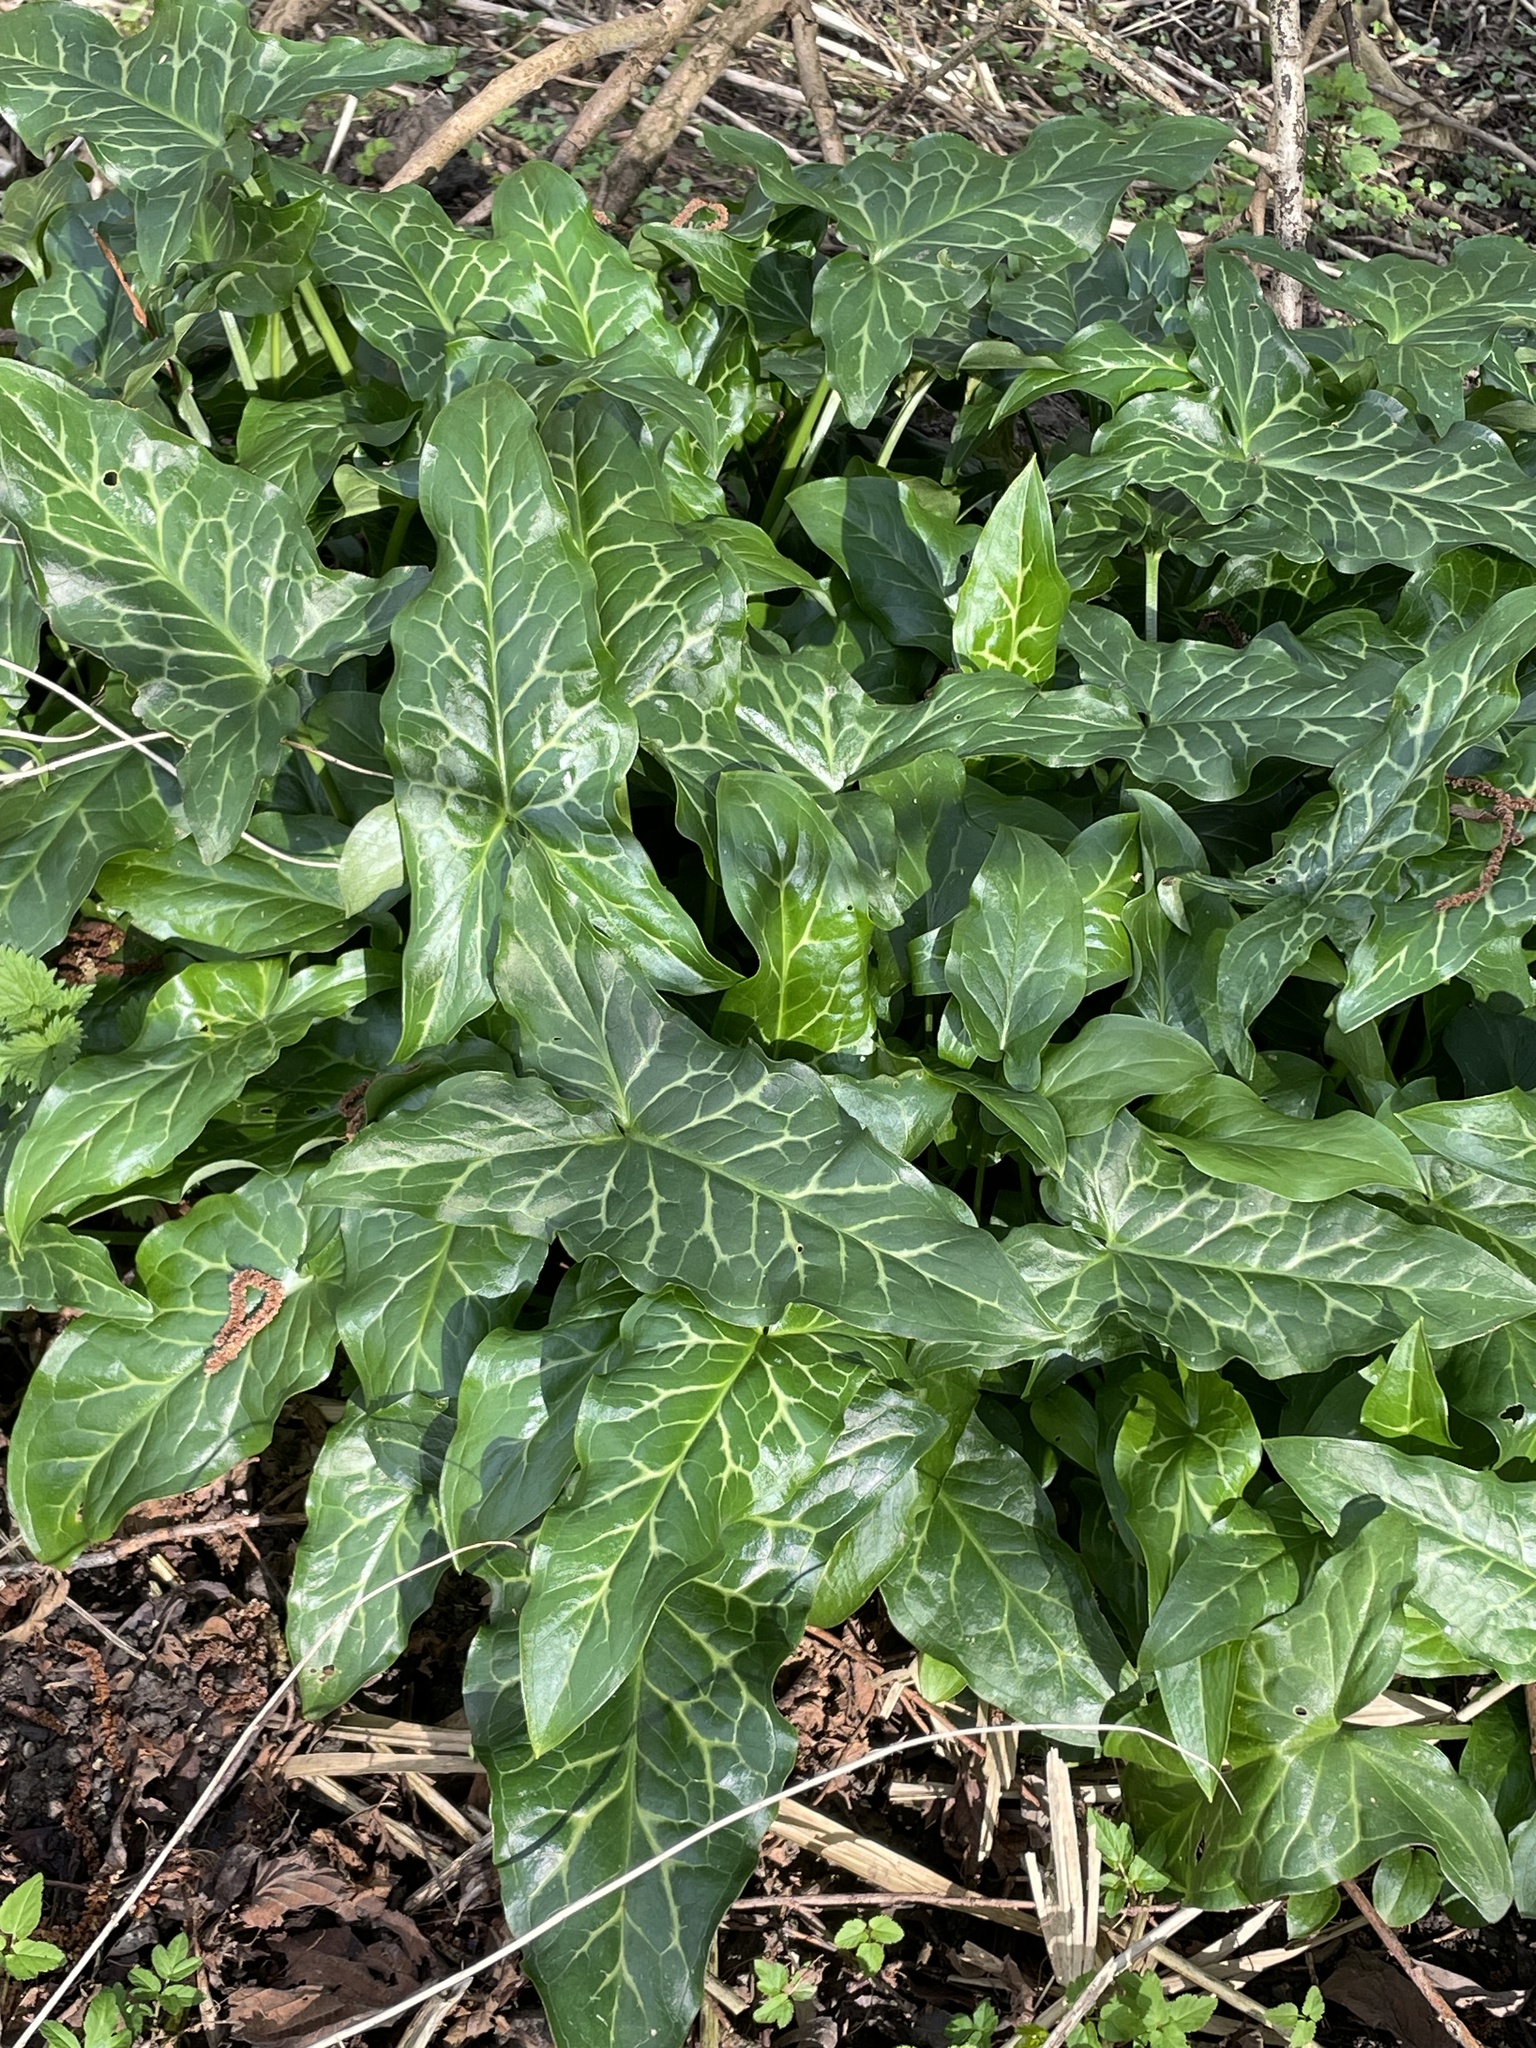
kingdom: Plantae
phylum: Tracheophyta
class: Liliopsida
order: Alismatales
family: Araceae
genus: Arum
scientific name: Arum italicum
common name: Italian lords-and-ladies
